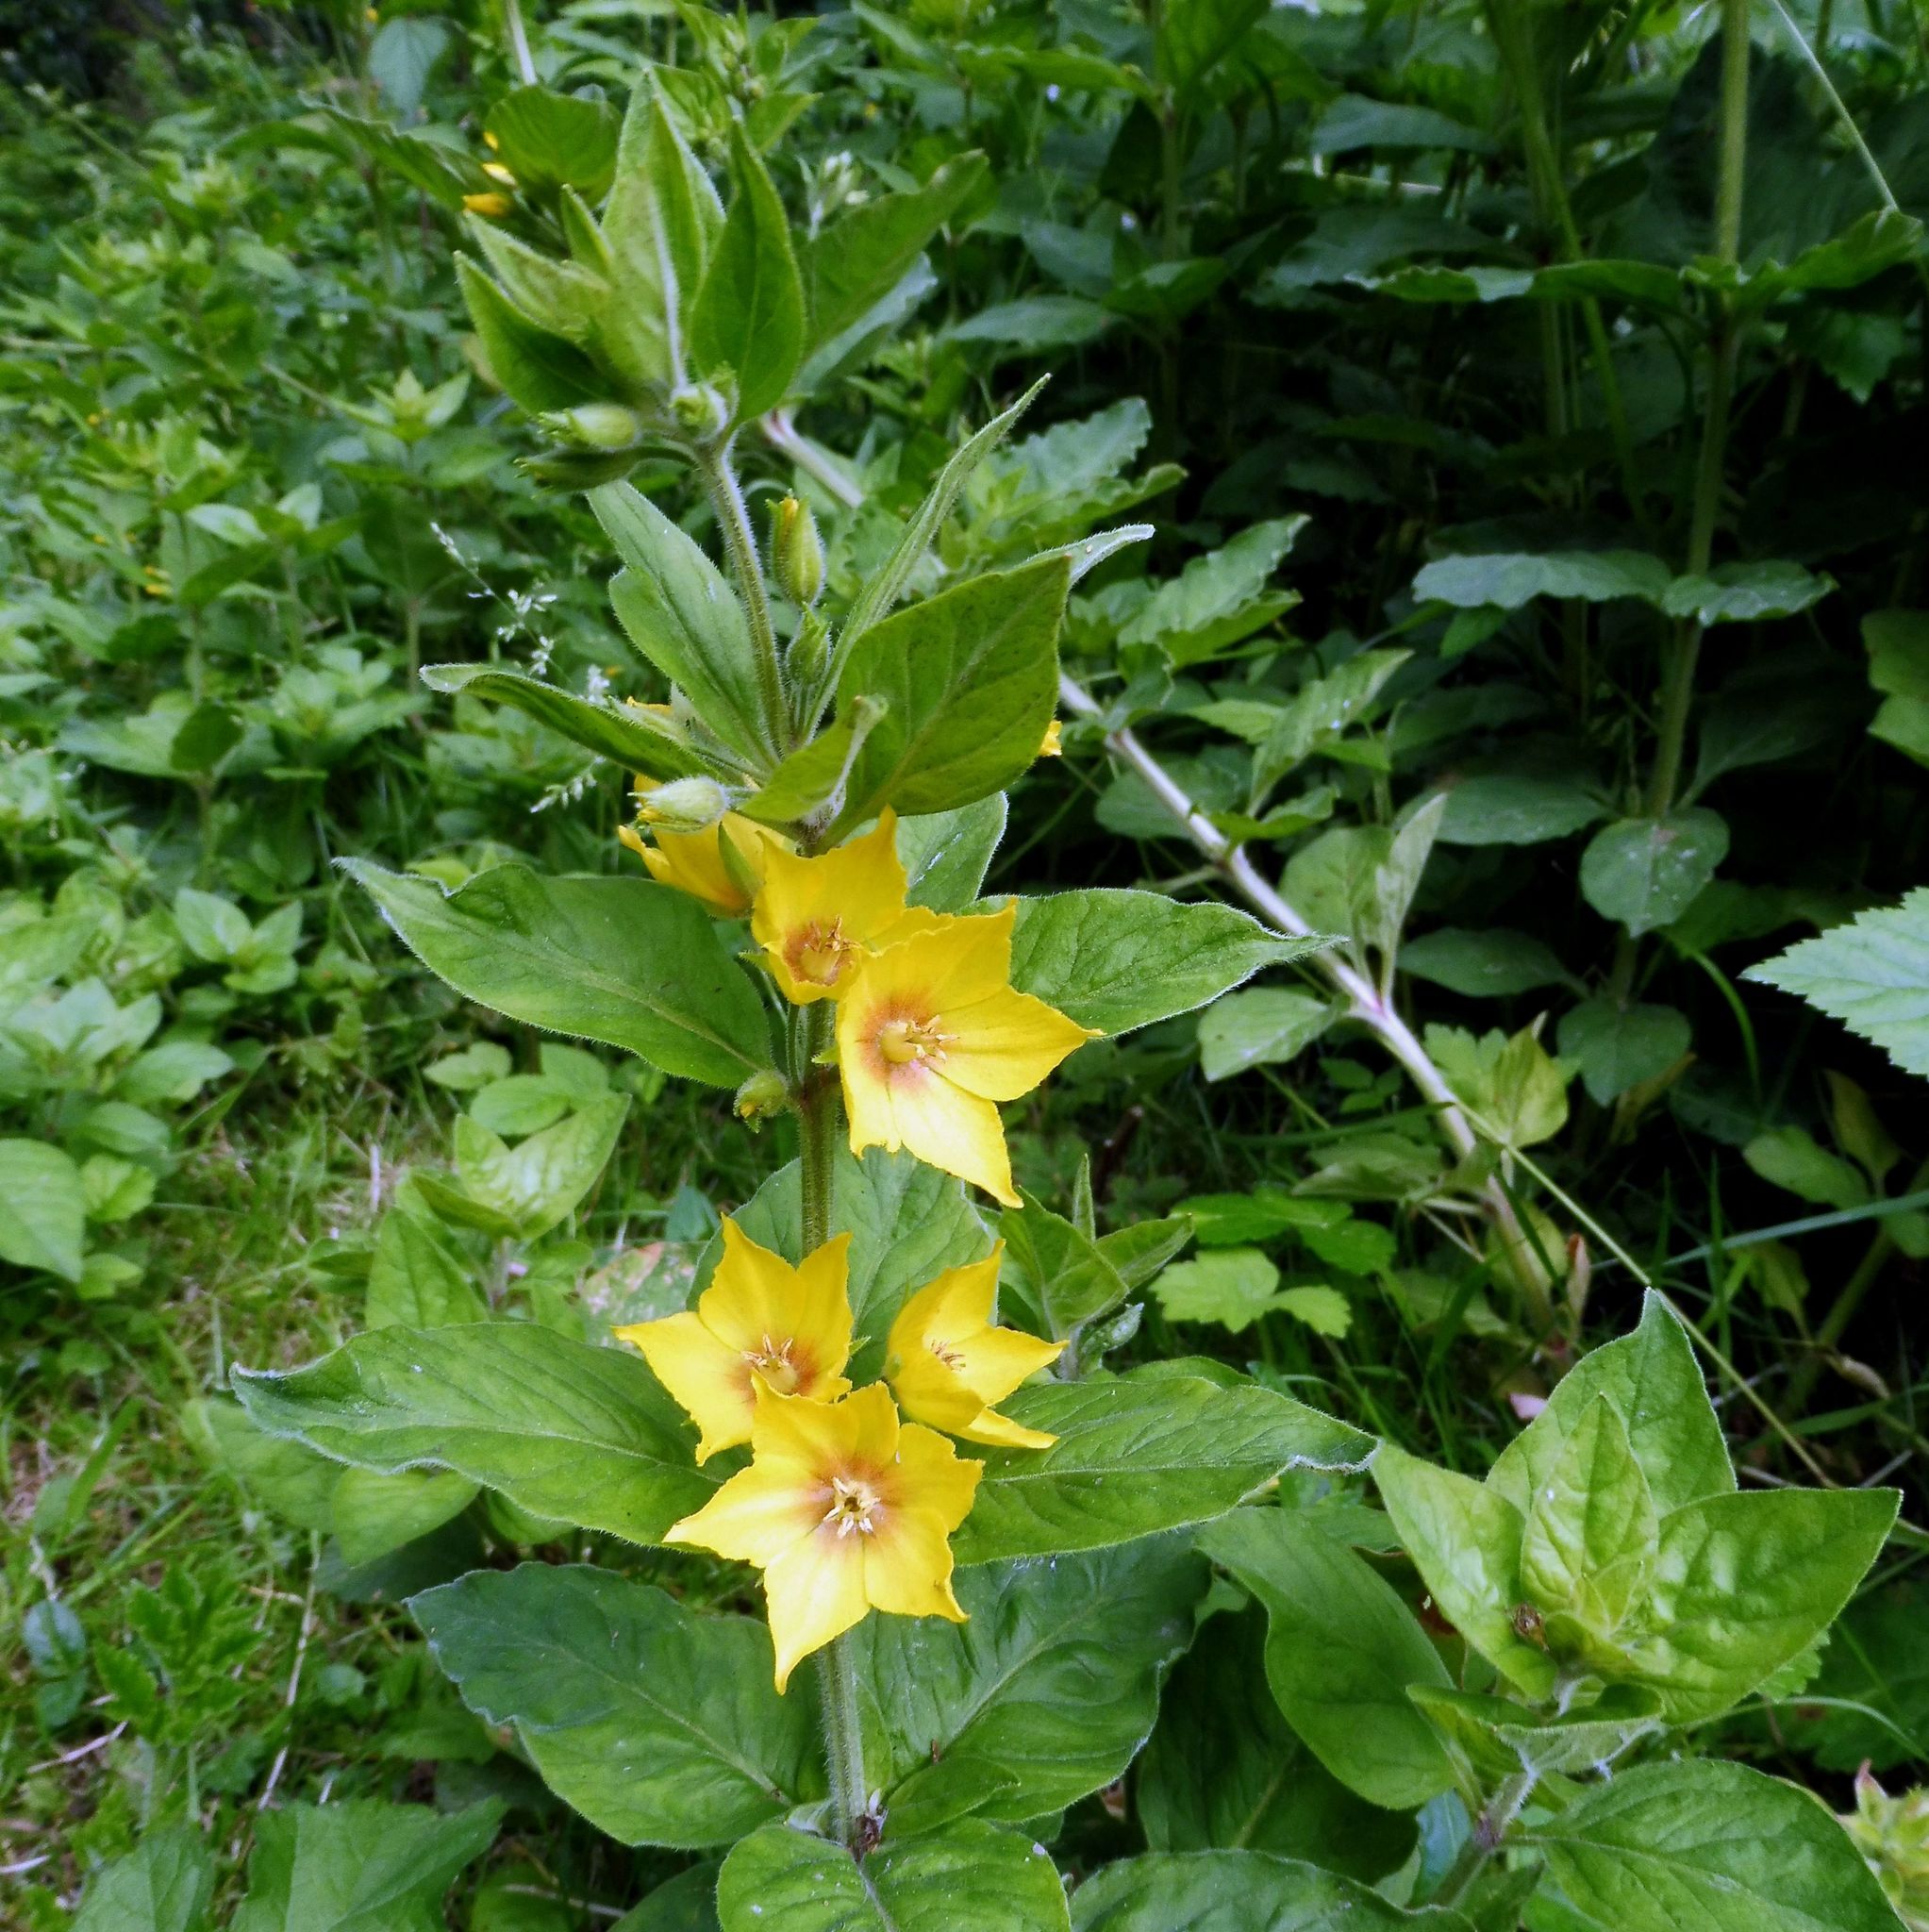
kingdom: Plantae
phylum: Tracheophyta
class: Magnoliopsida
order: Ericales
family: Primulaceae
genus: Lysimachia
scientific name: Lysimachia punctata
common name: Dotted loosestrife
